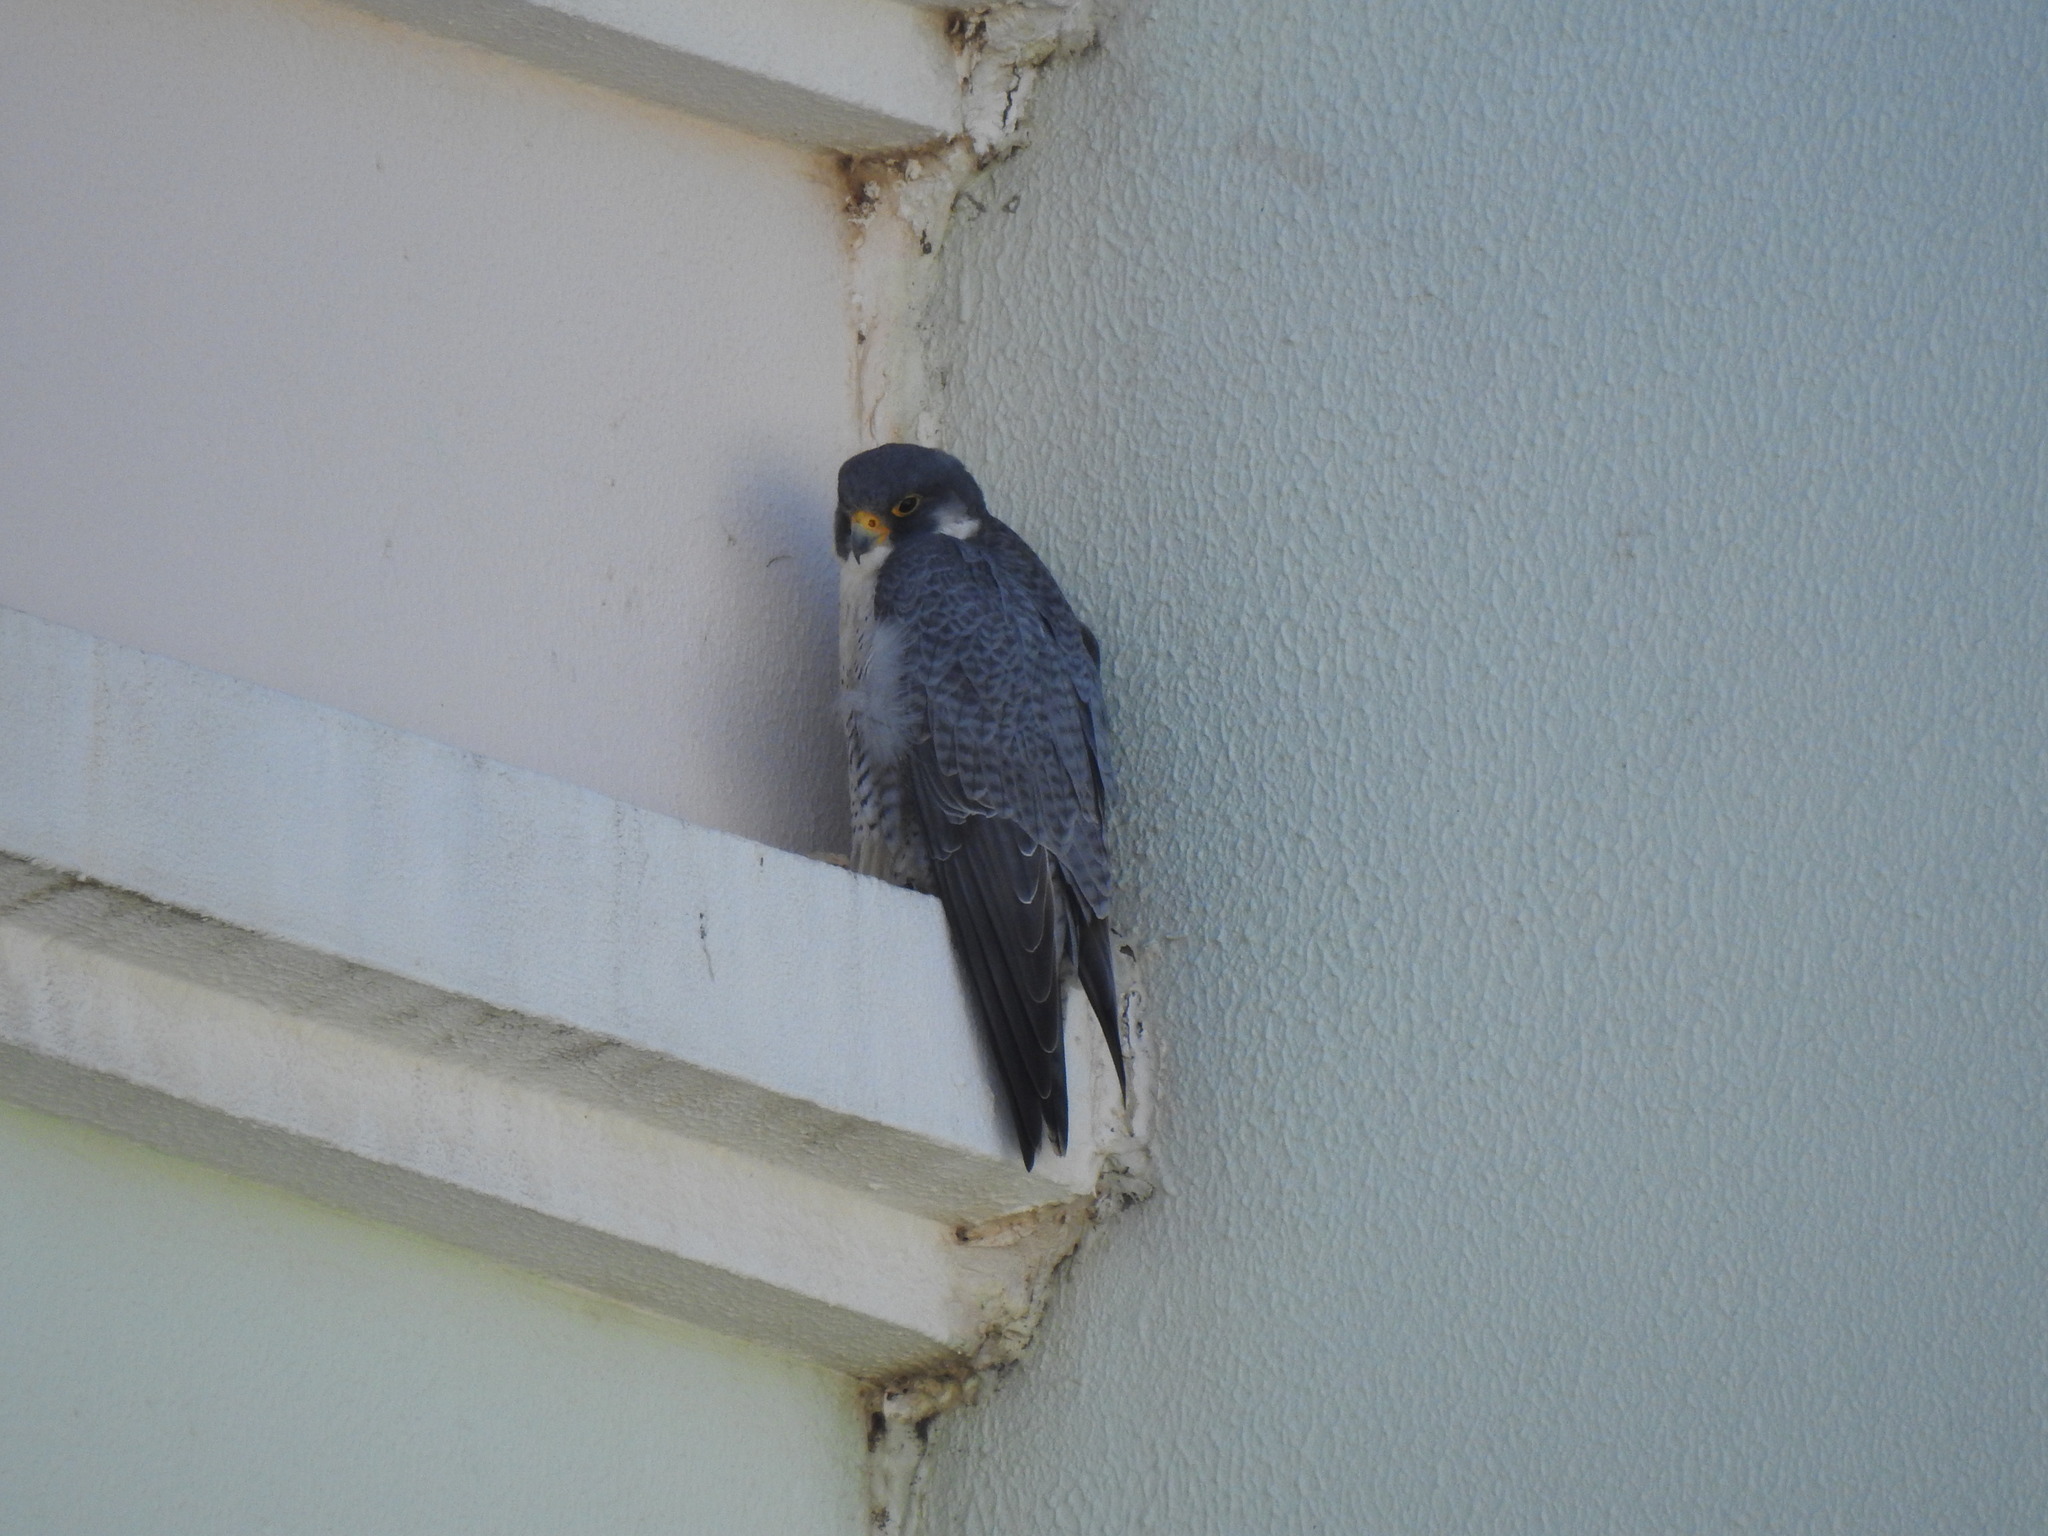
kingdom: Animalia
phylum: Chordata
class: Aves
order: Falconiformes
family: Falconidae
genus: Falco
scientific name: Falco peregrinus
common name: Peregrine falcon
